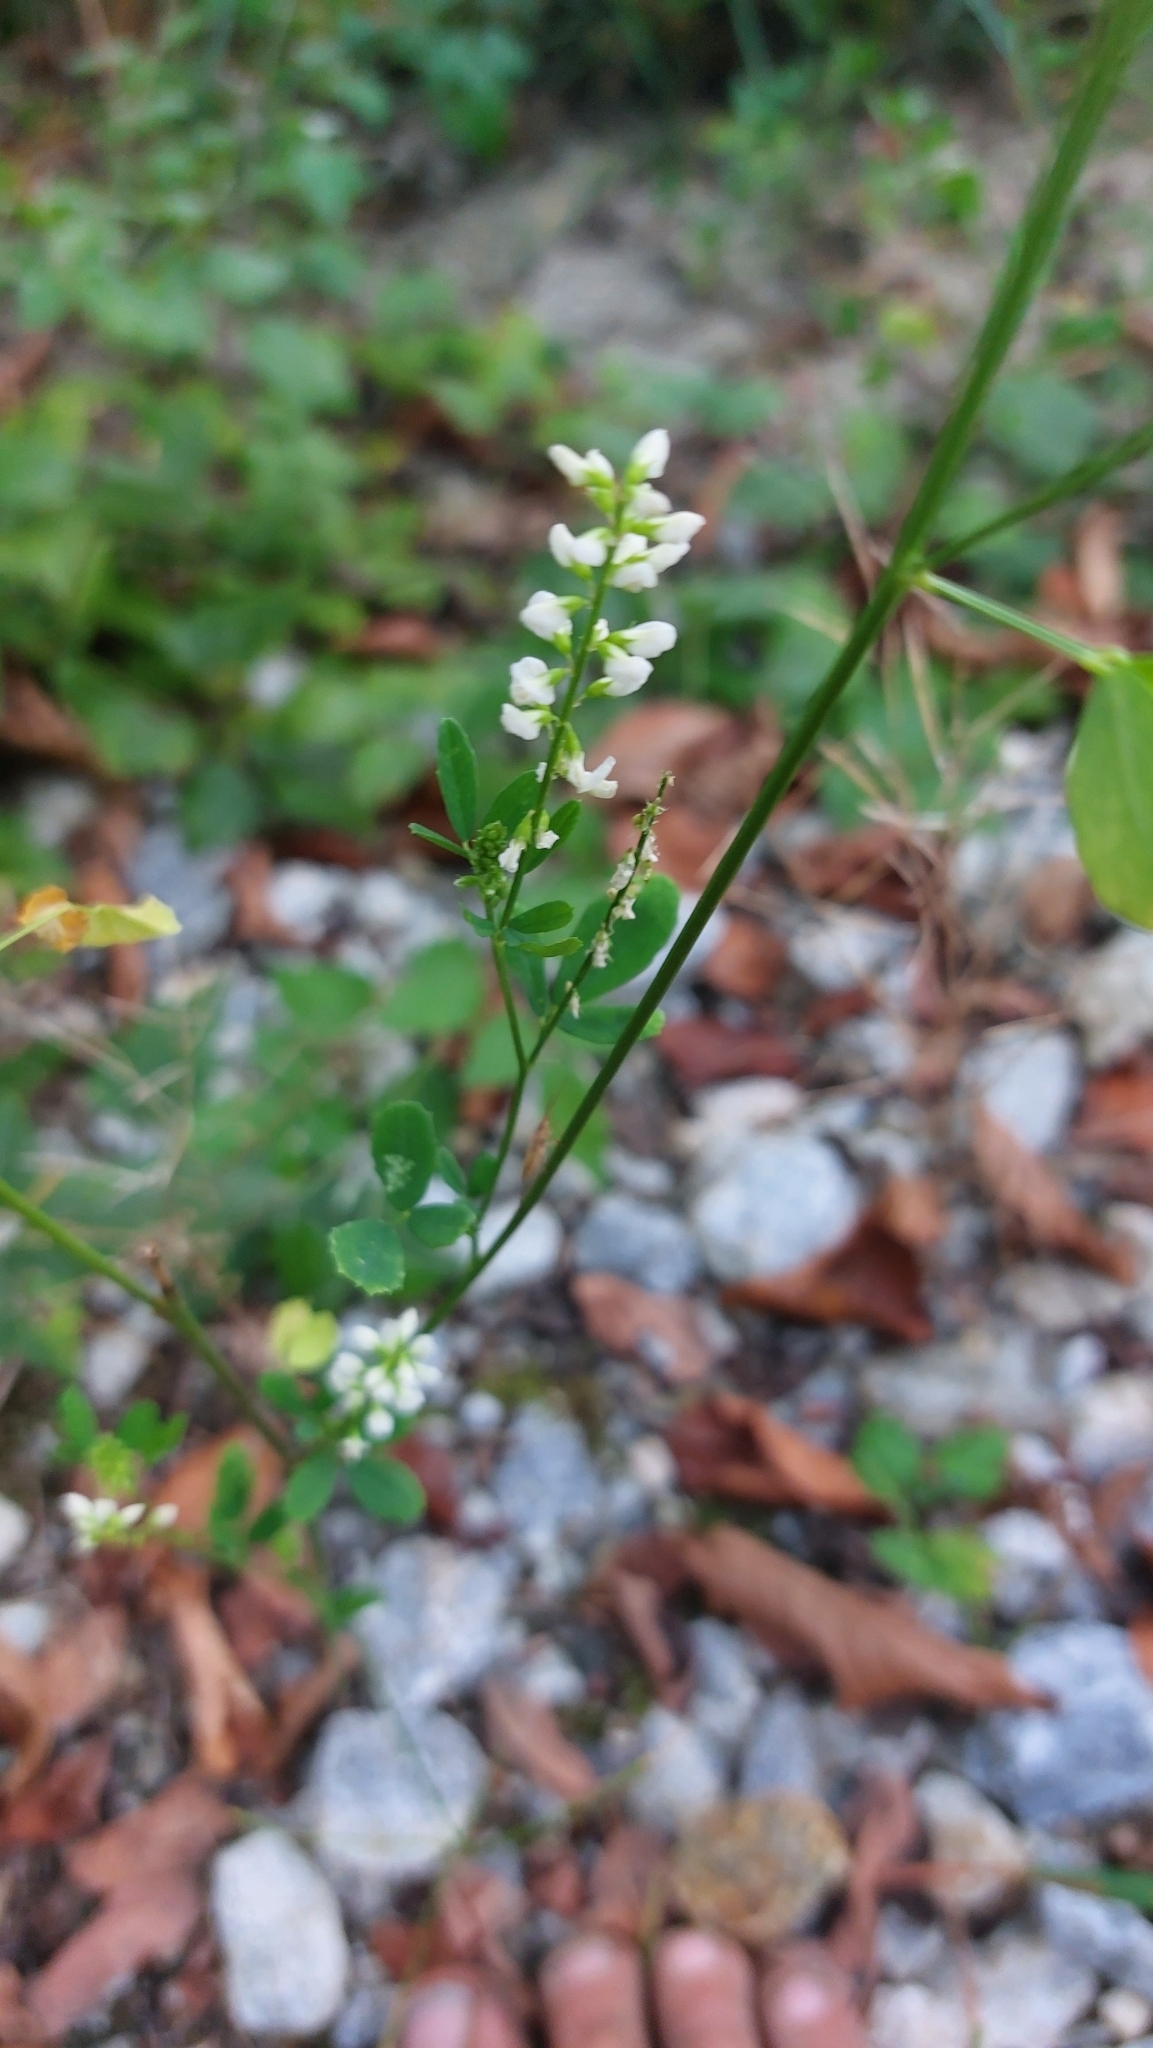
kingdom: Plantae
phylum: Tracheophyta
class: Magnoliopsida
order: Fabales
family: Fabaceae
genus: Melilotus
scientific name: Melilotus albus
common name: White melilot
